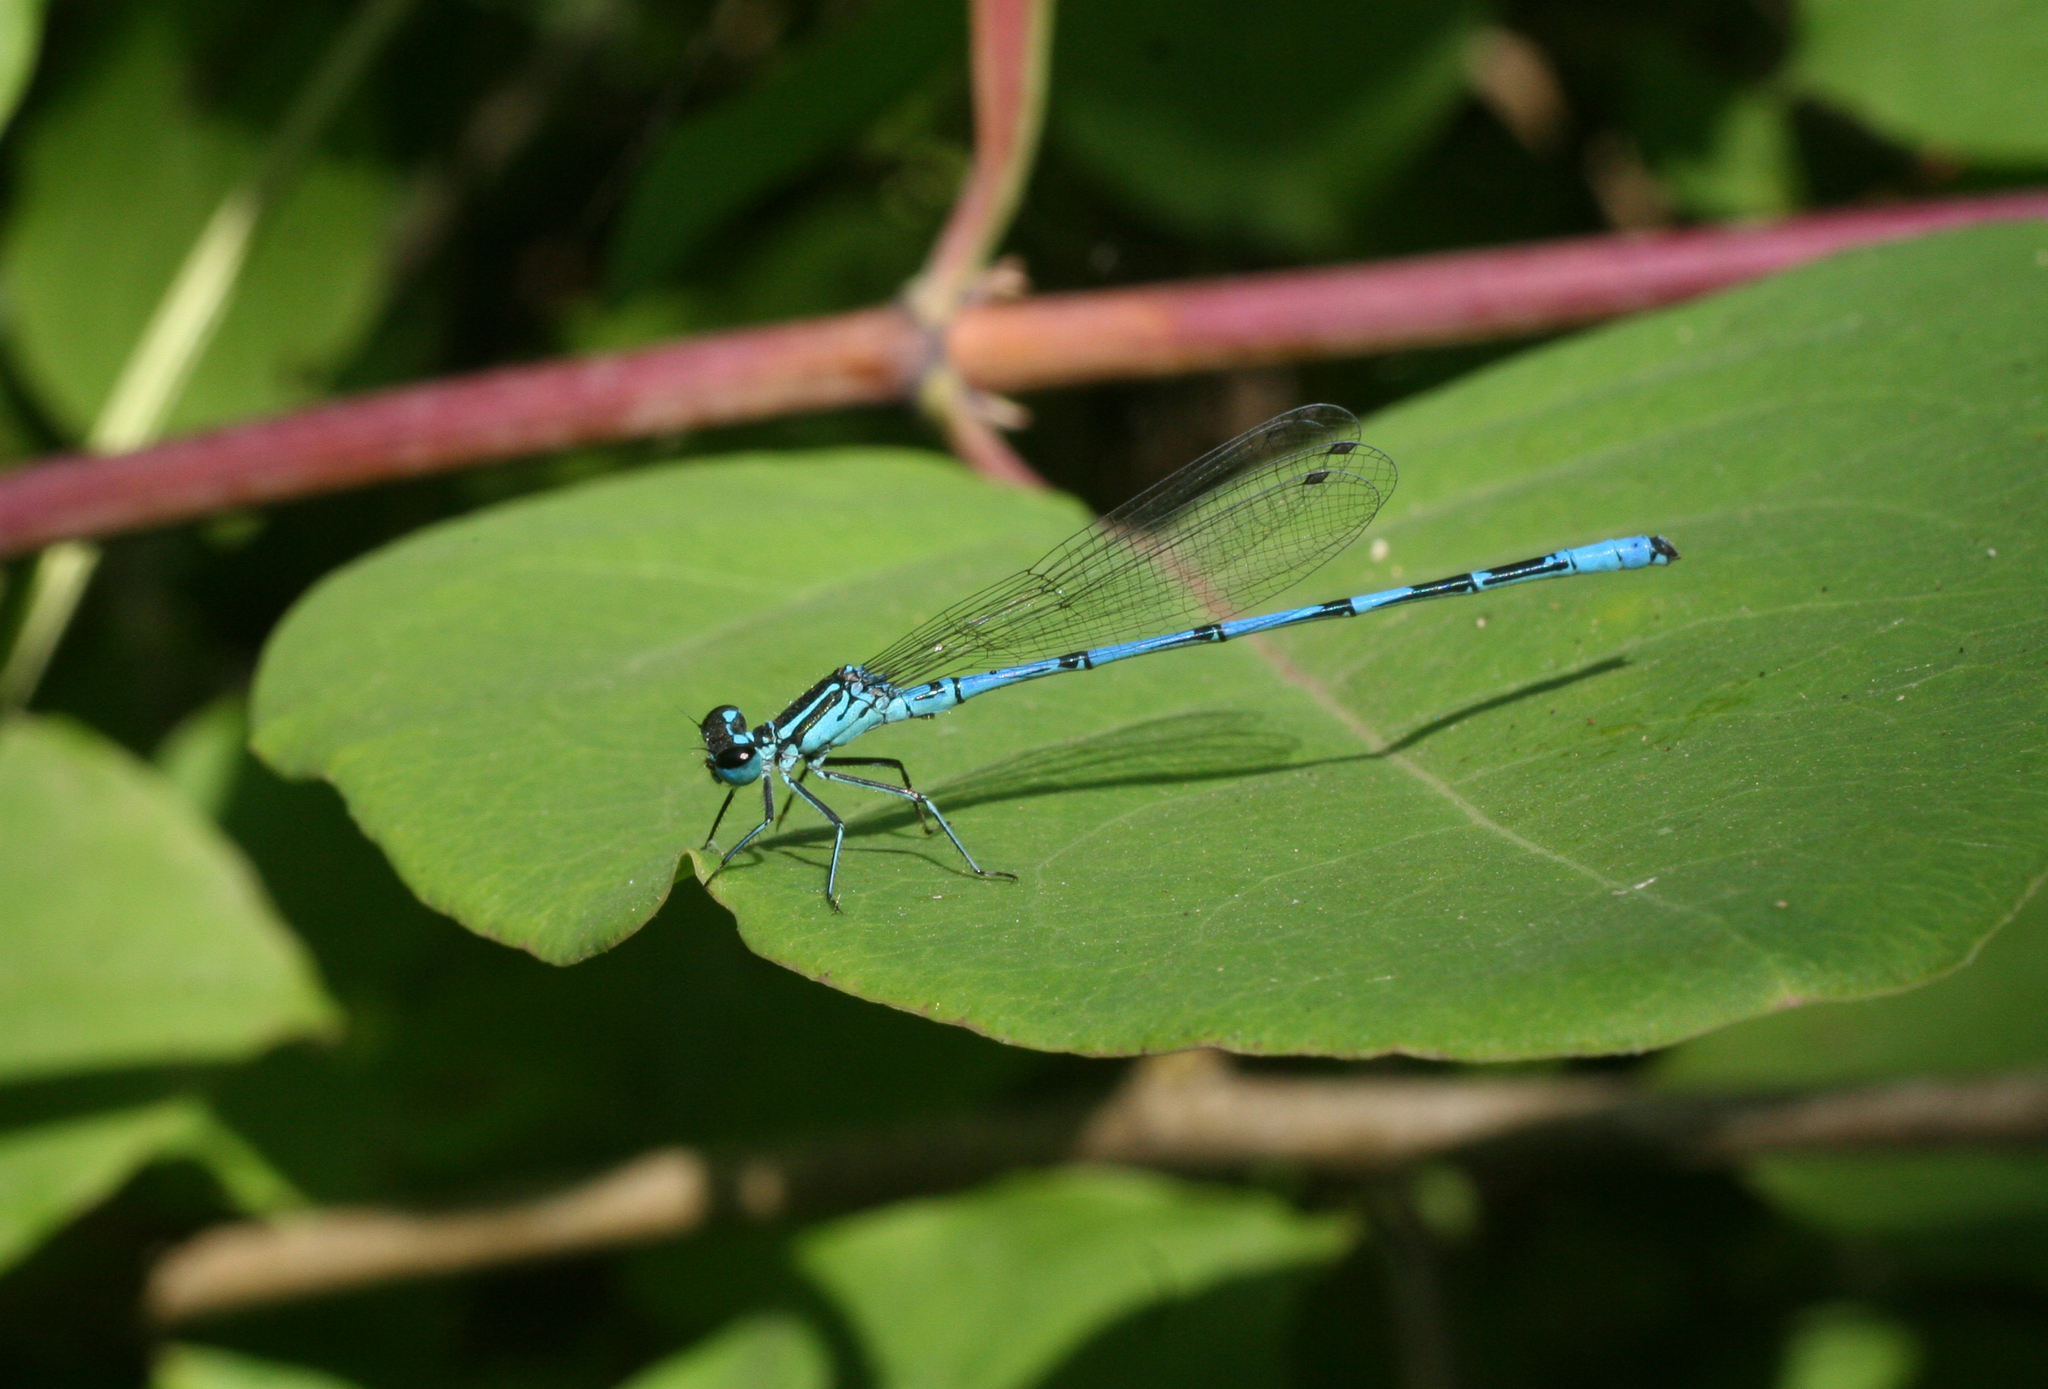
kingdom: Animalia
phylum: Arthropoda
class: Insecta
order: Odonata
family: Coenagrionidae
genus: Coenagrion
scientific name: Coenagrion australocaspicum
